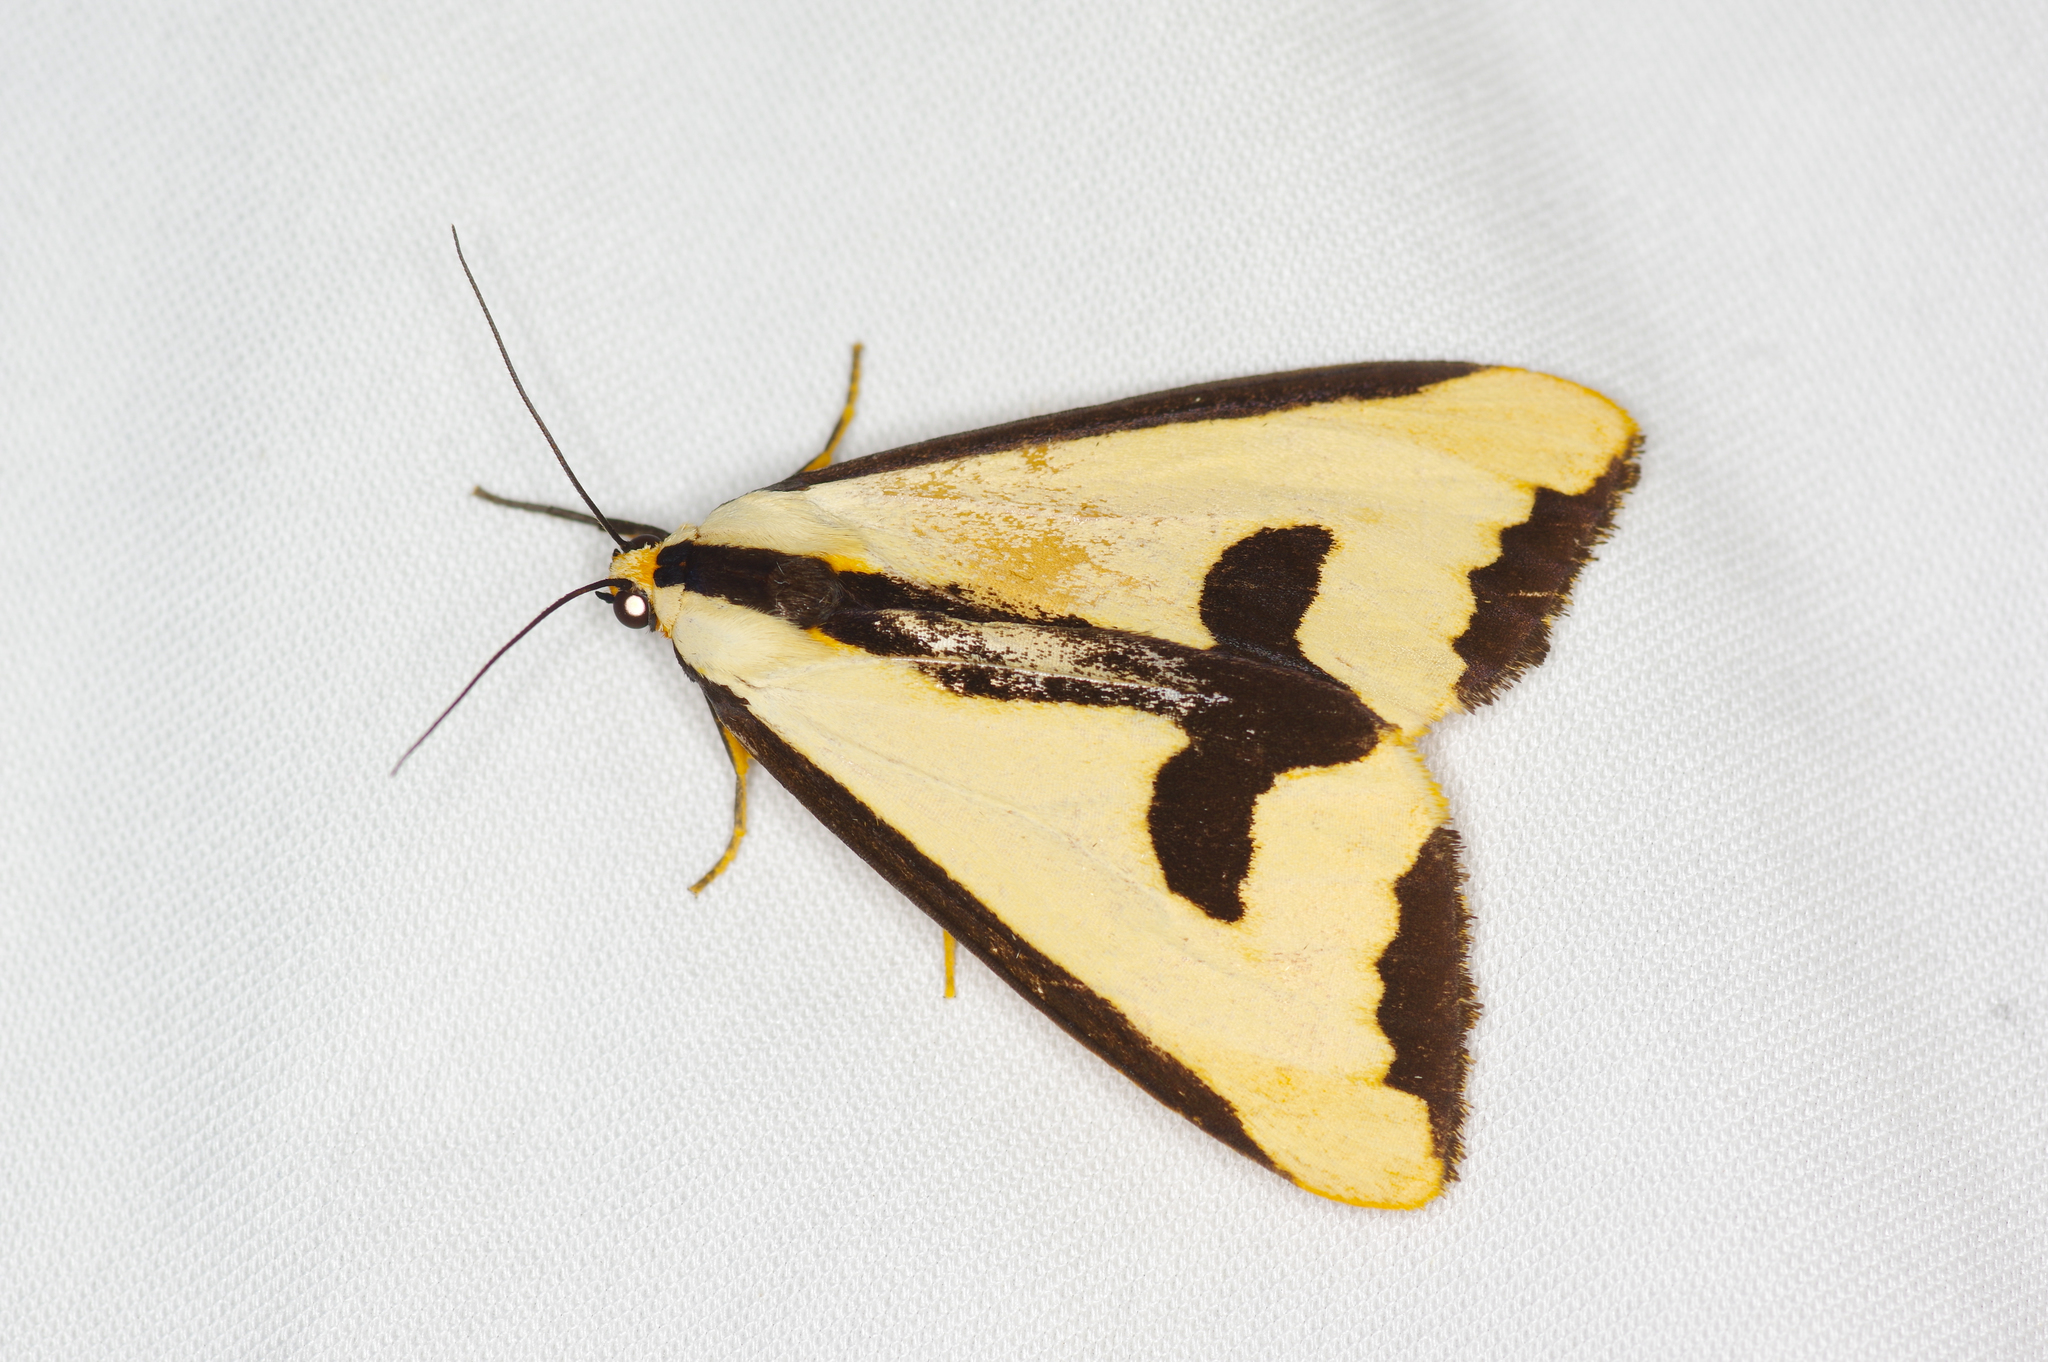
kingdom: Animalia
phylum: Arthropoda
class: Insecta
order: Lepidoptera
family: Erebidae
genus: Haploa
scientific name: Haploa clymene
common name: Clymene moth
